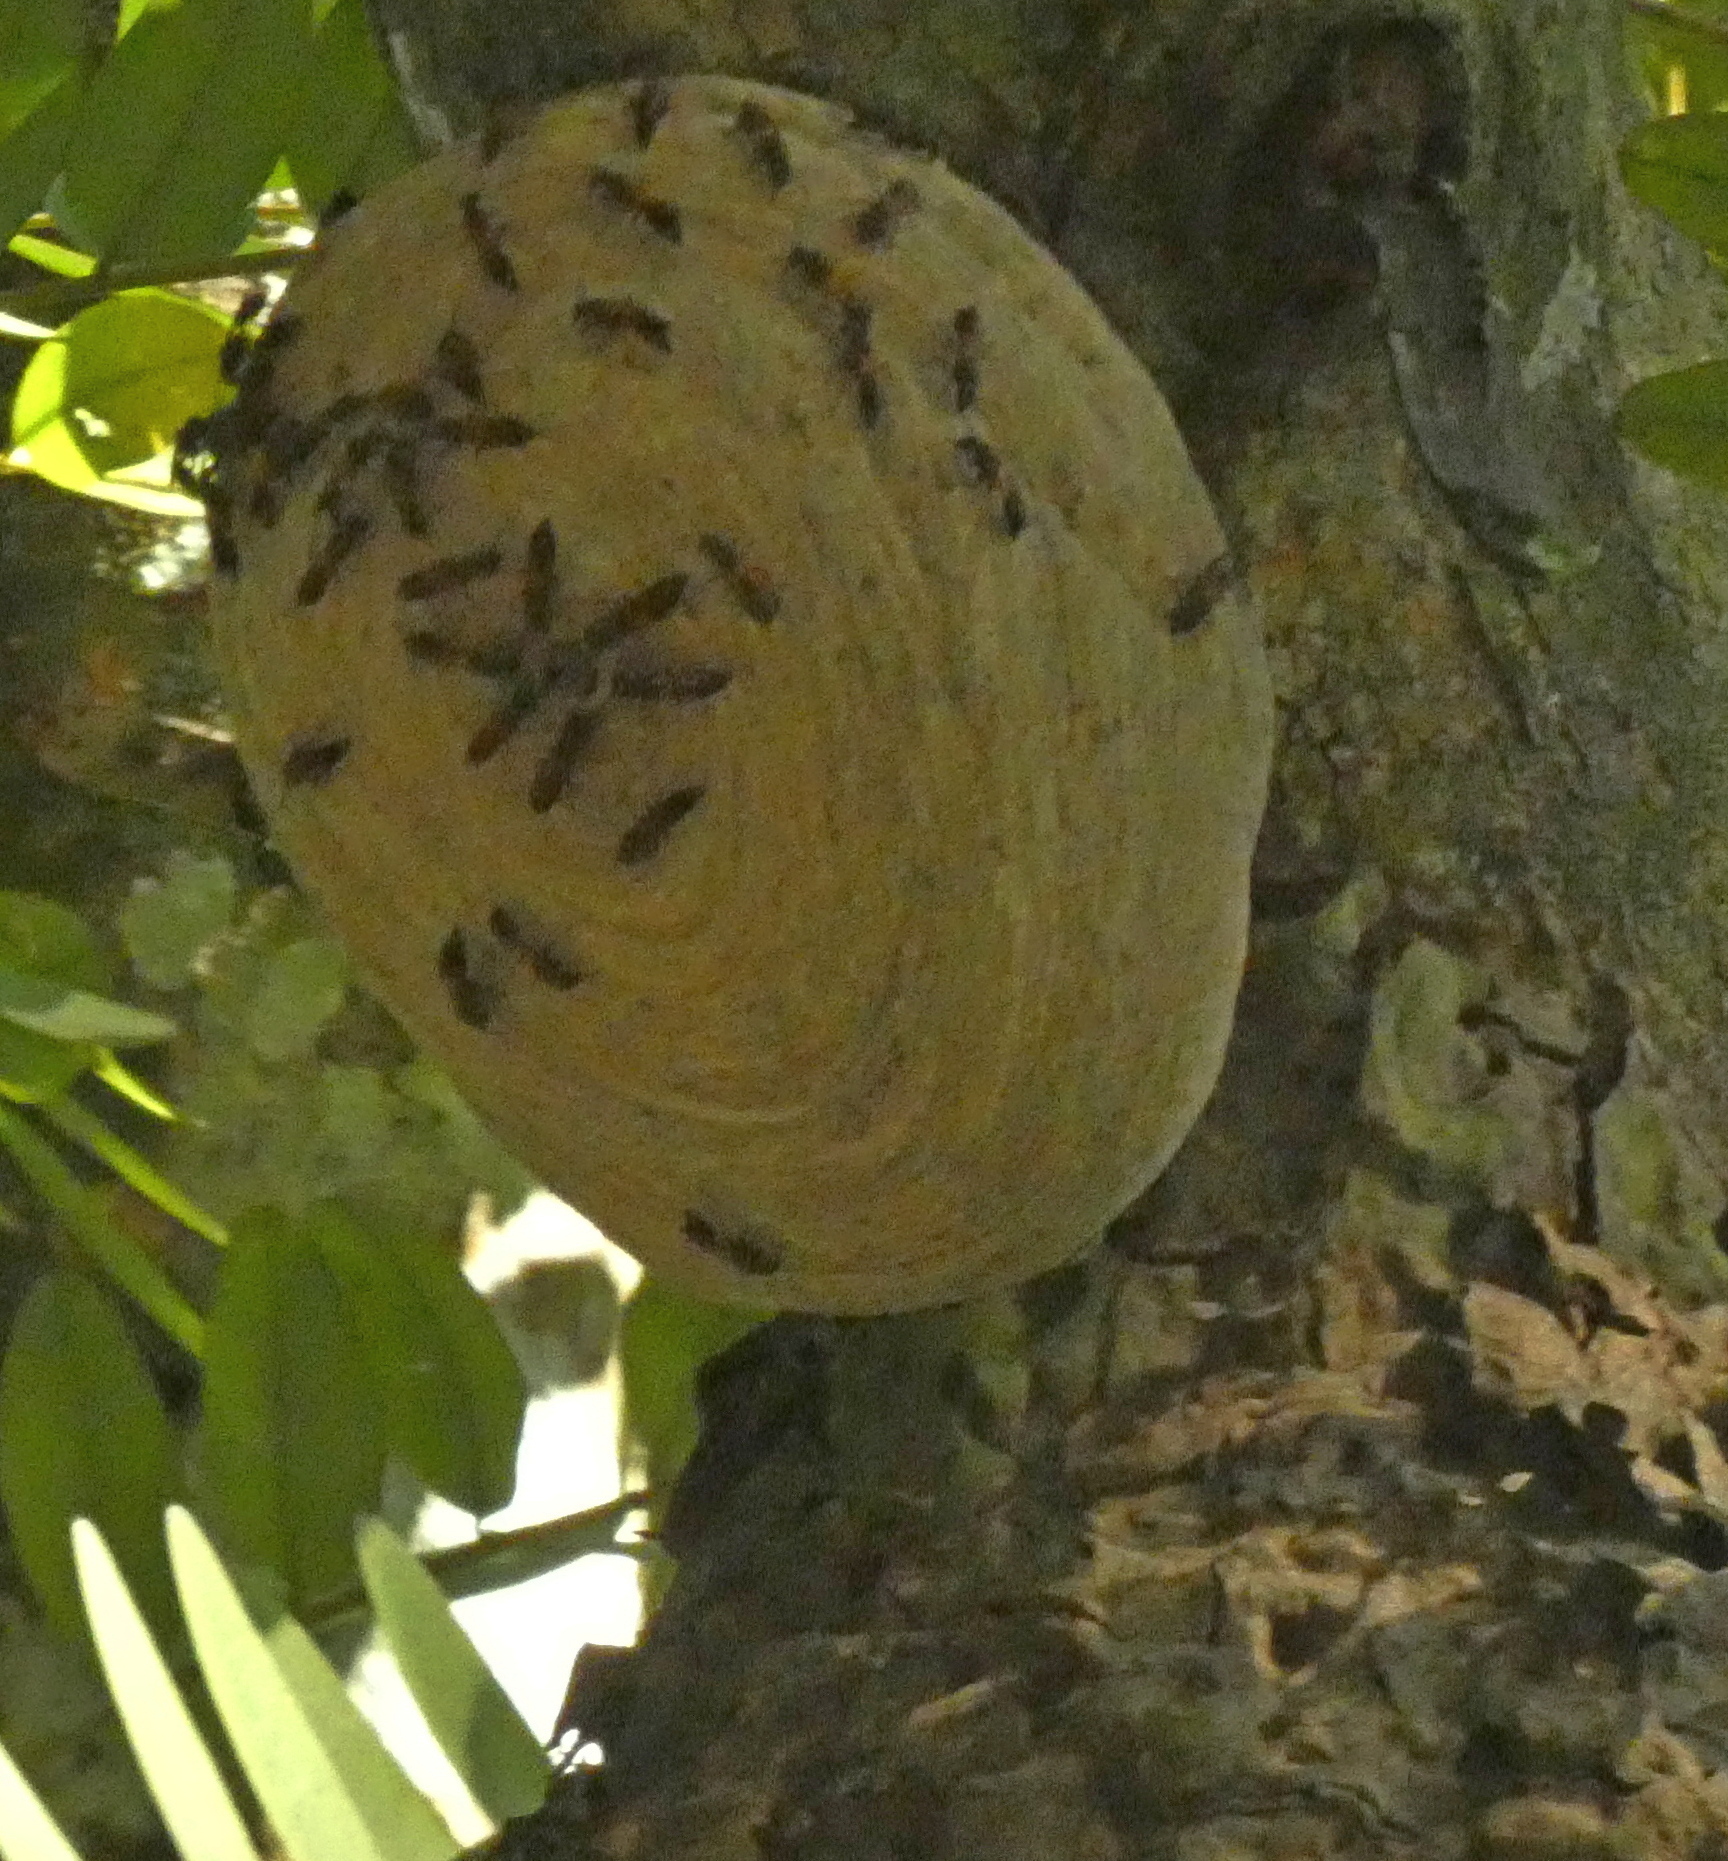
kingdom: Animalia
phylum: Arthropoda
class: Insecta
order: Hymenoptera
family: Eumenidae
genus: Polybia
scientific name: Polybia rejecta
